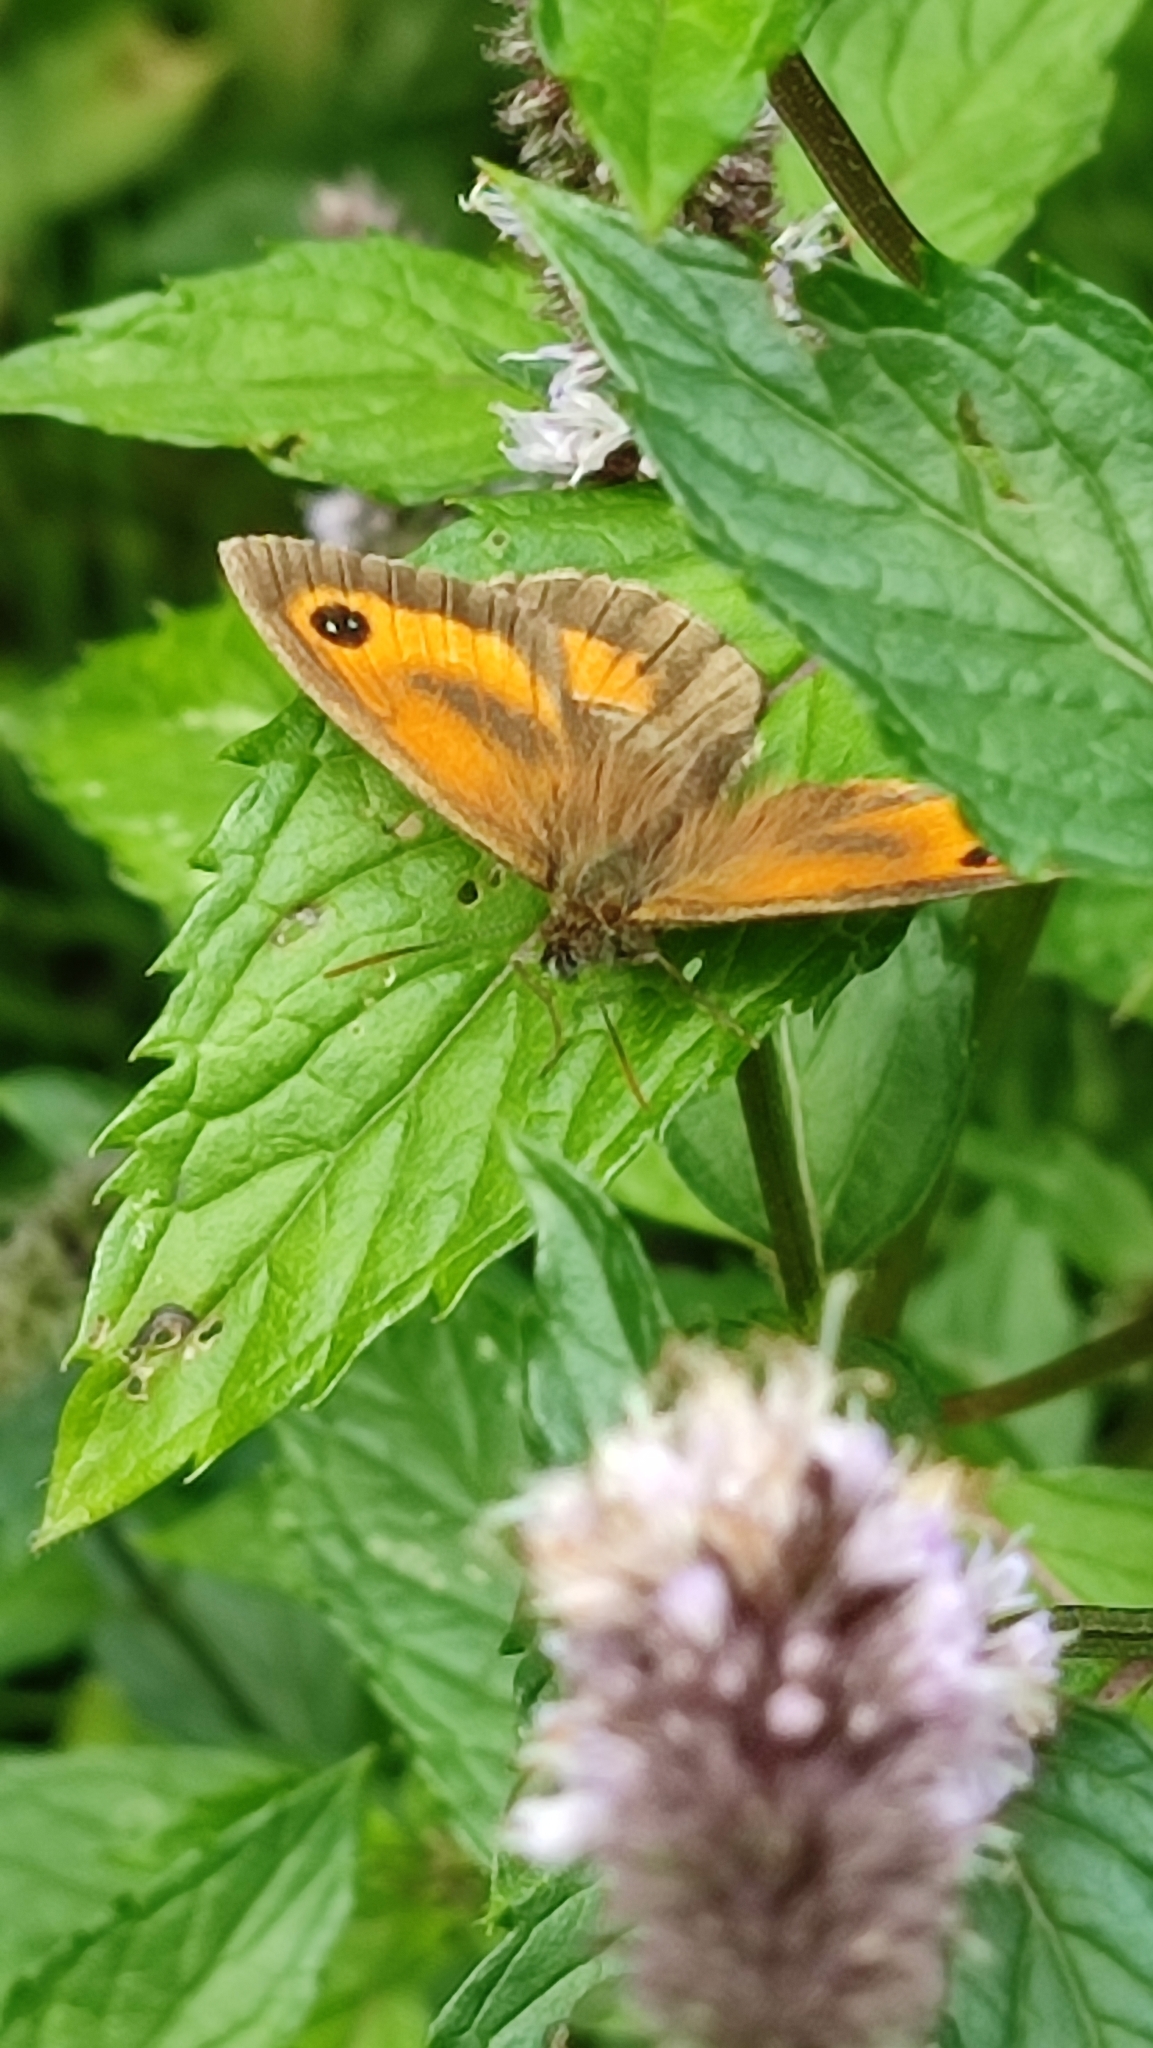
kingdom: Animalia
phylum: Arthropoda
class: Insecta
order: Lepidoptera
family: Nymphalidae
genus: Pyronia
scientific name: Pyronia tithonus
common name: Gatekeeper
